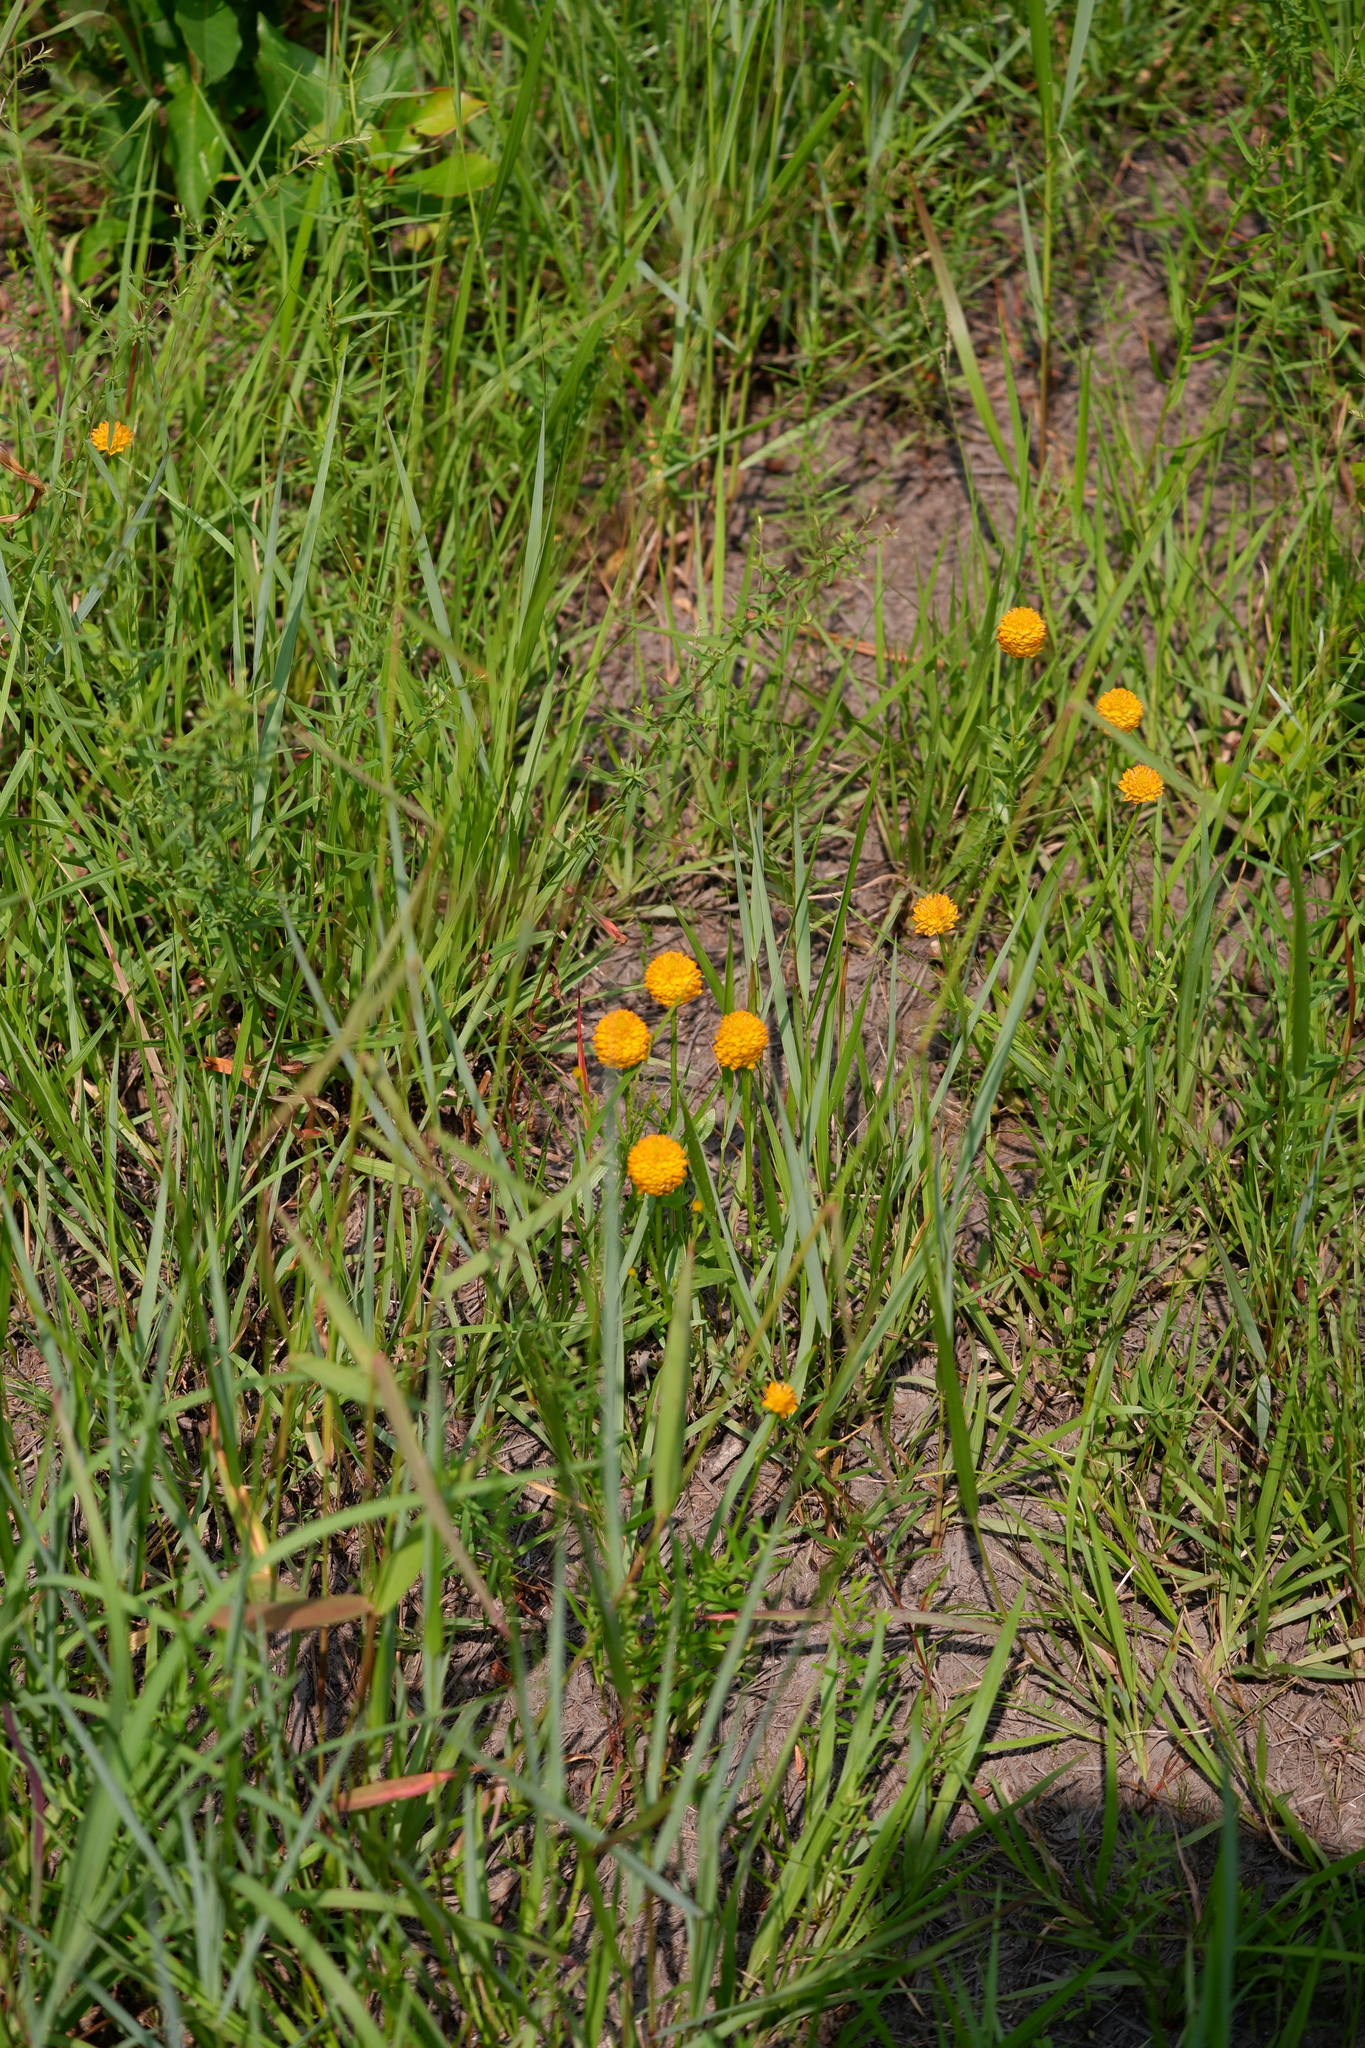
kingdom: Plantae
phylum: Tracheophyta
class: Magnoliopsida
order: Fabales
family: Polygalaceae
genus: Polygala
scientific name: Polygala lutea
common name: Orange milkwort
